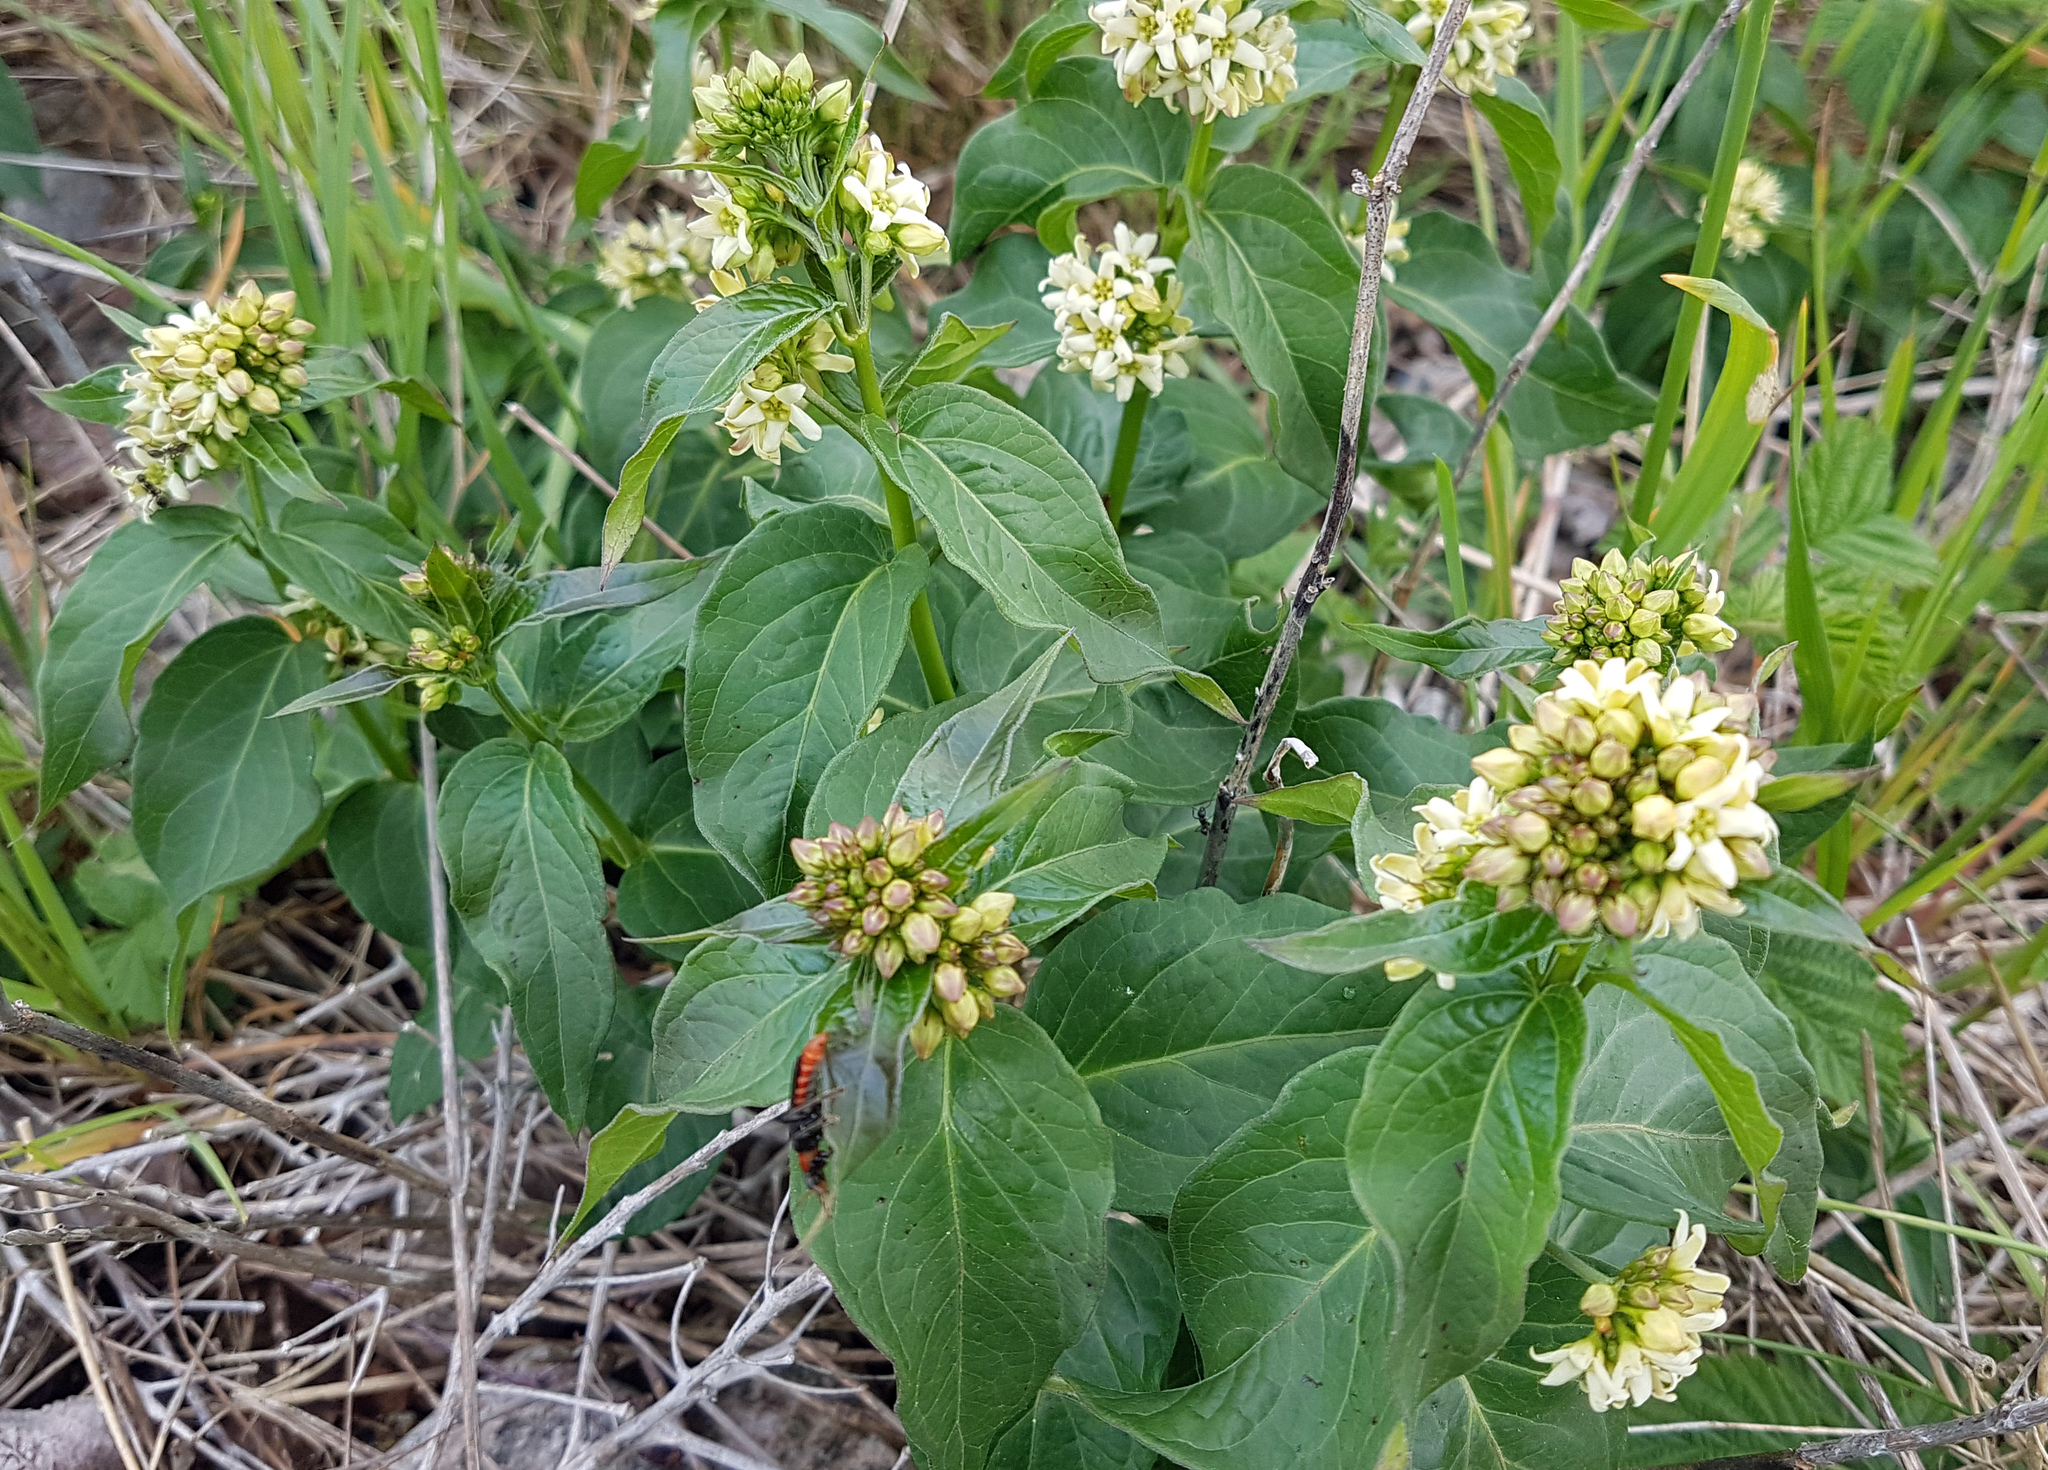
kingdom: Plantae
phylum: Tracheophyta
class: Magnoliopsida
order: Gentianales
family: Apocynaceae
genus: Vincetoxicum
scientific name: Vincetoxicum hirundinaria
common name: White swallowwort
